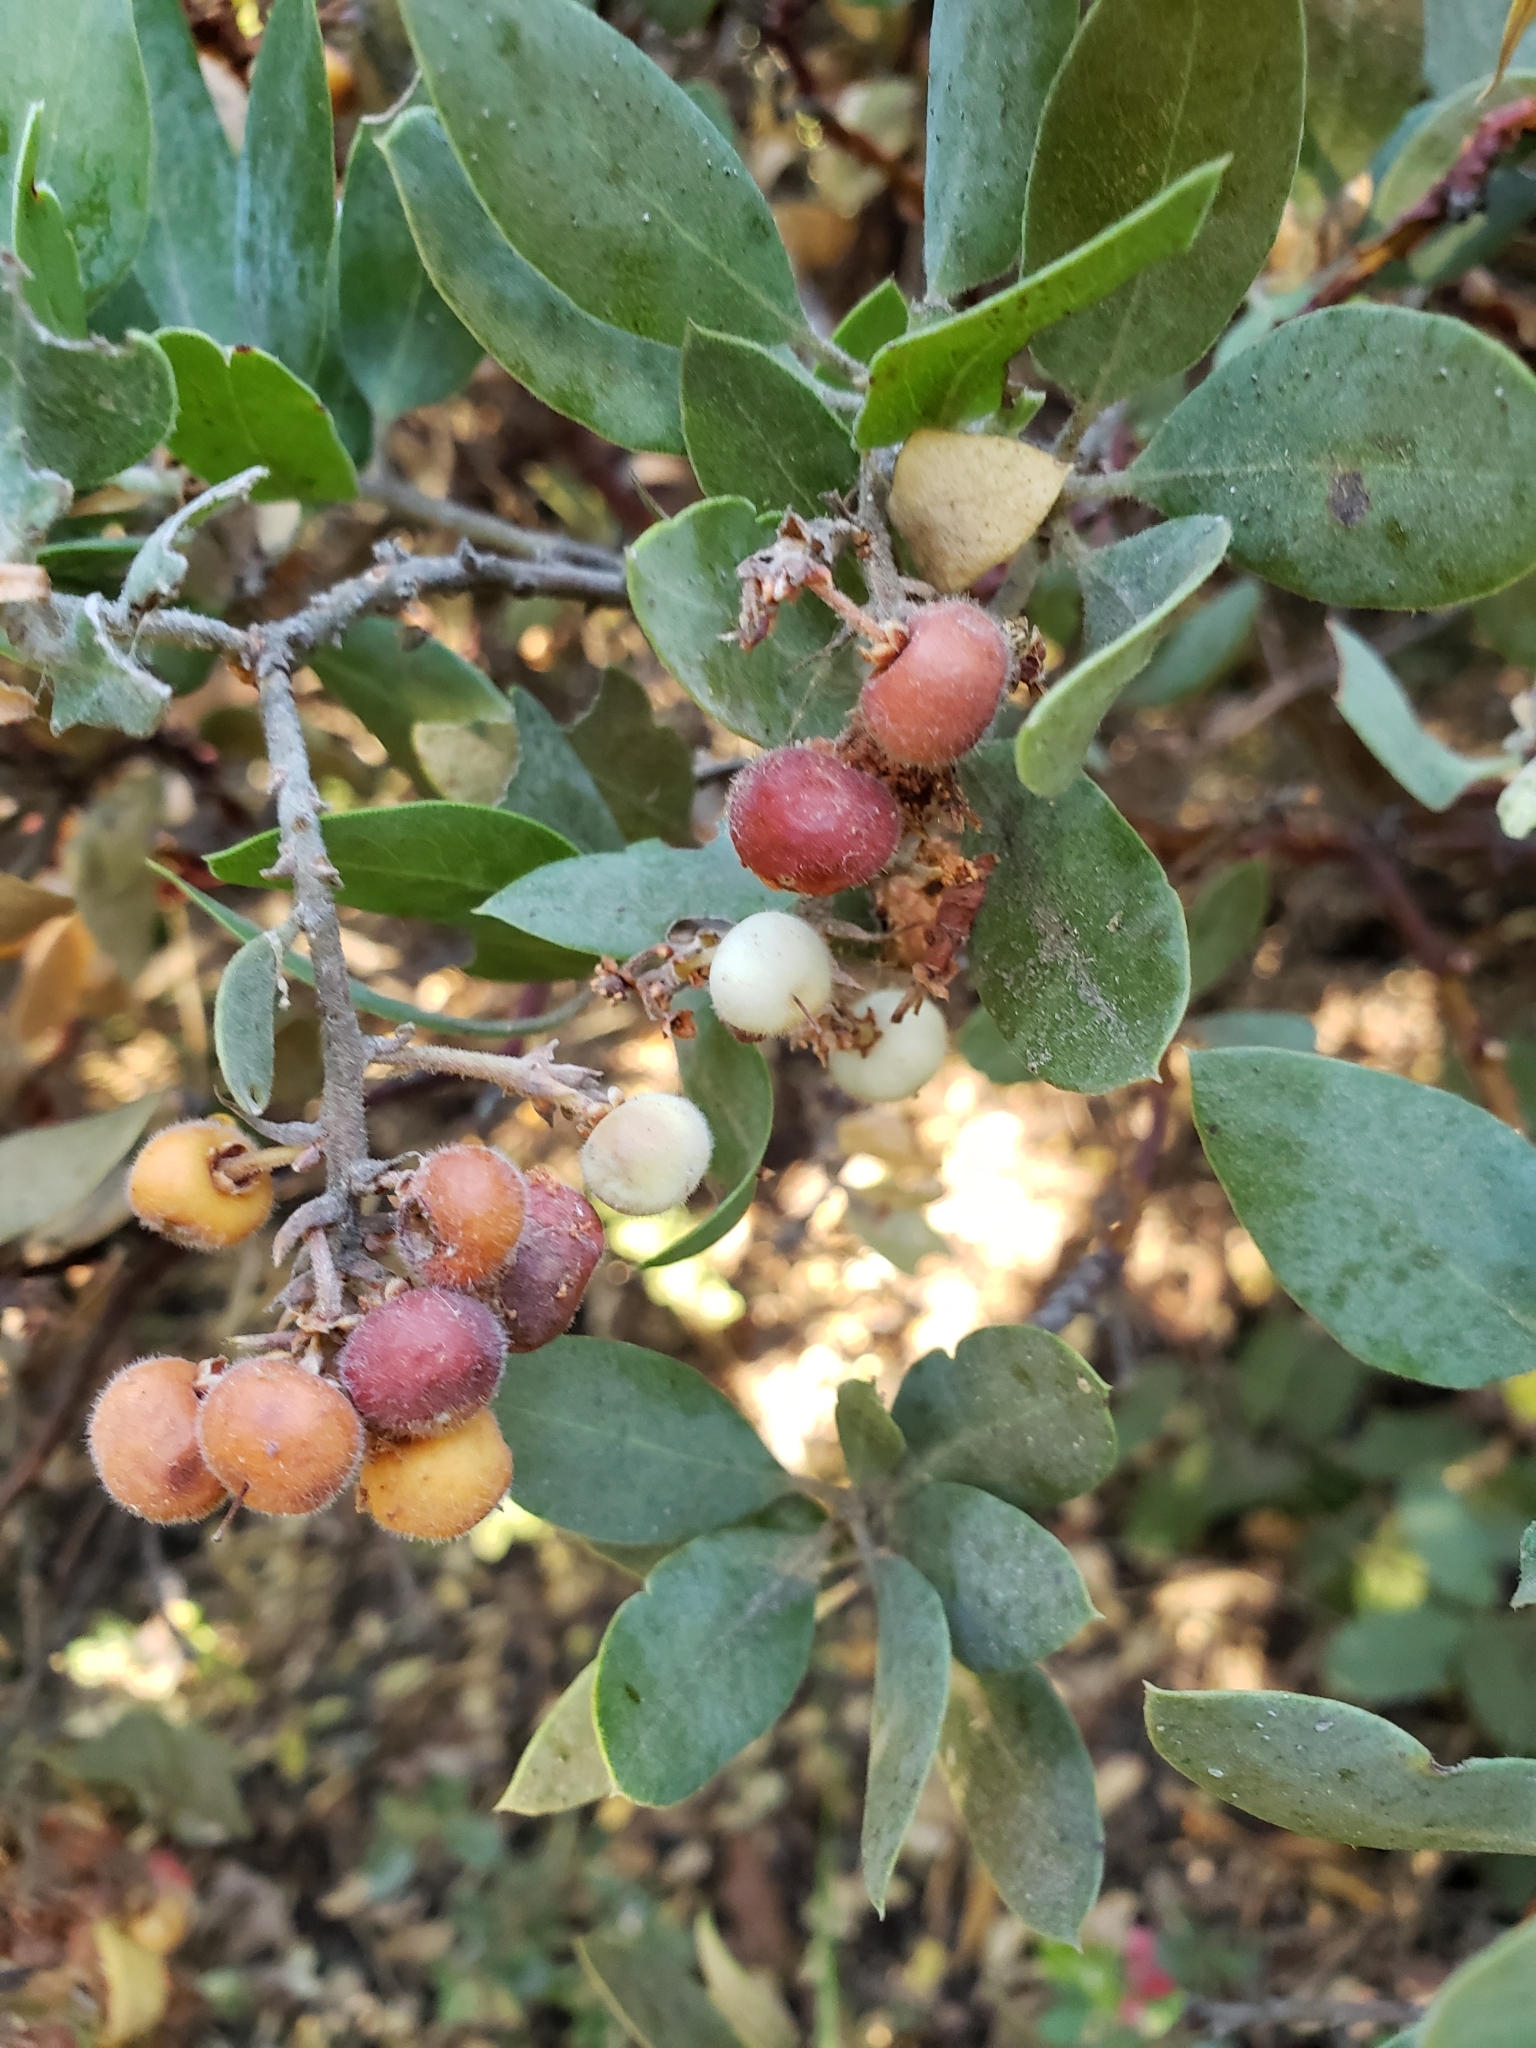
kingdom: Plantae
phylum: Tracheophyta
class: Magnoliopsida
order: Ericales
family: Ericaceae
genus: Arctostaphylos
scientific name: Arctostaphylos glandulosa
